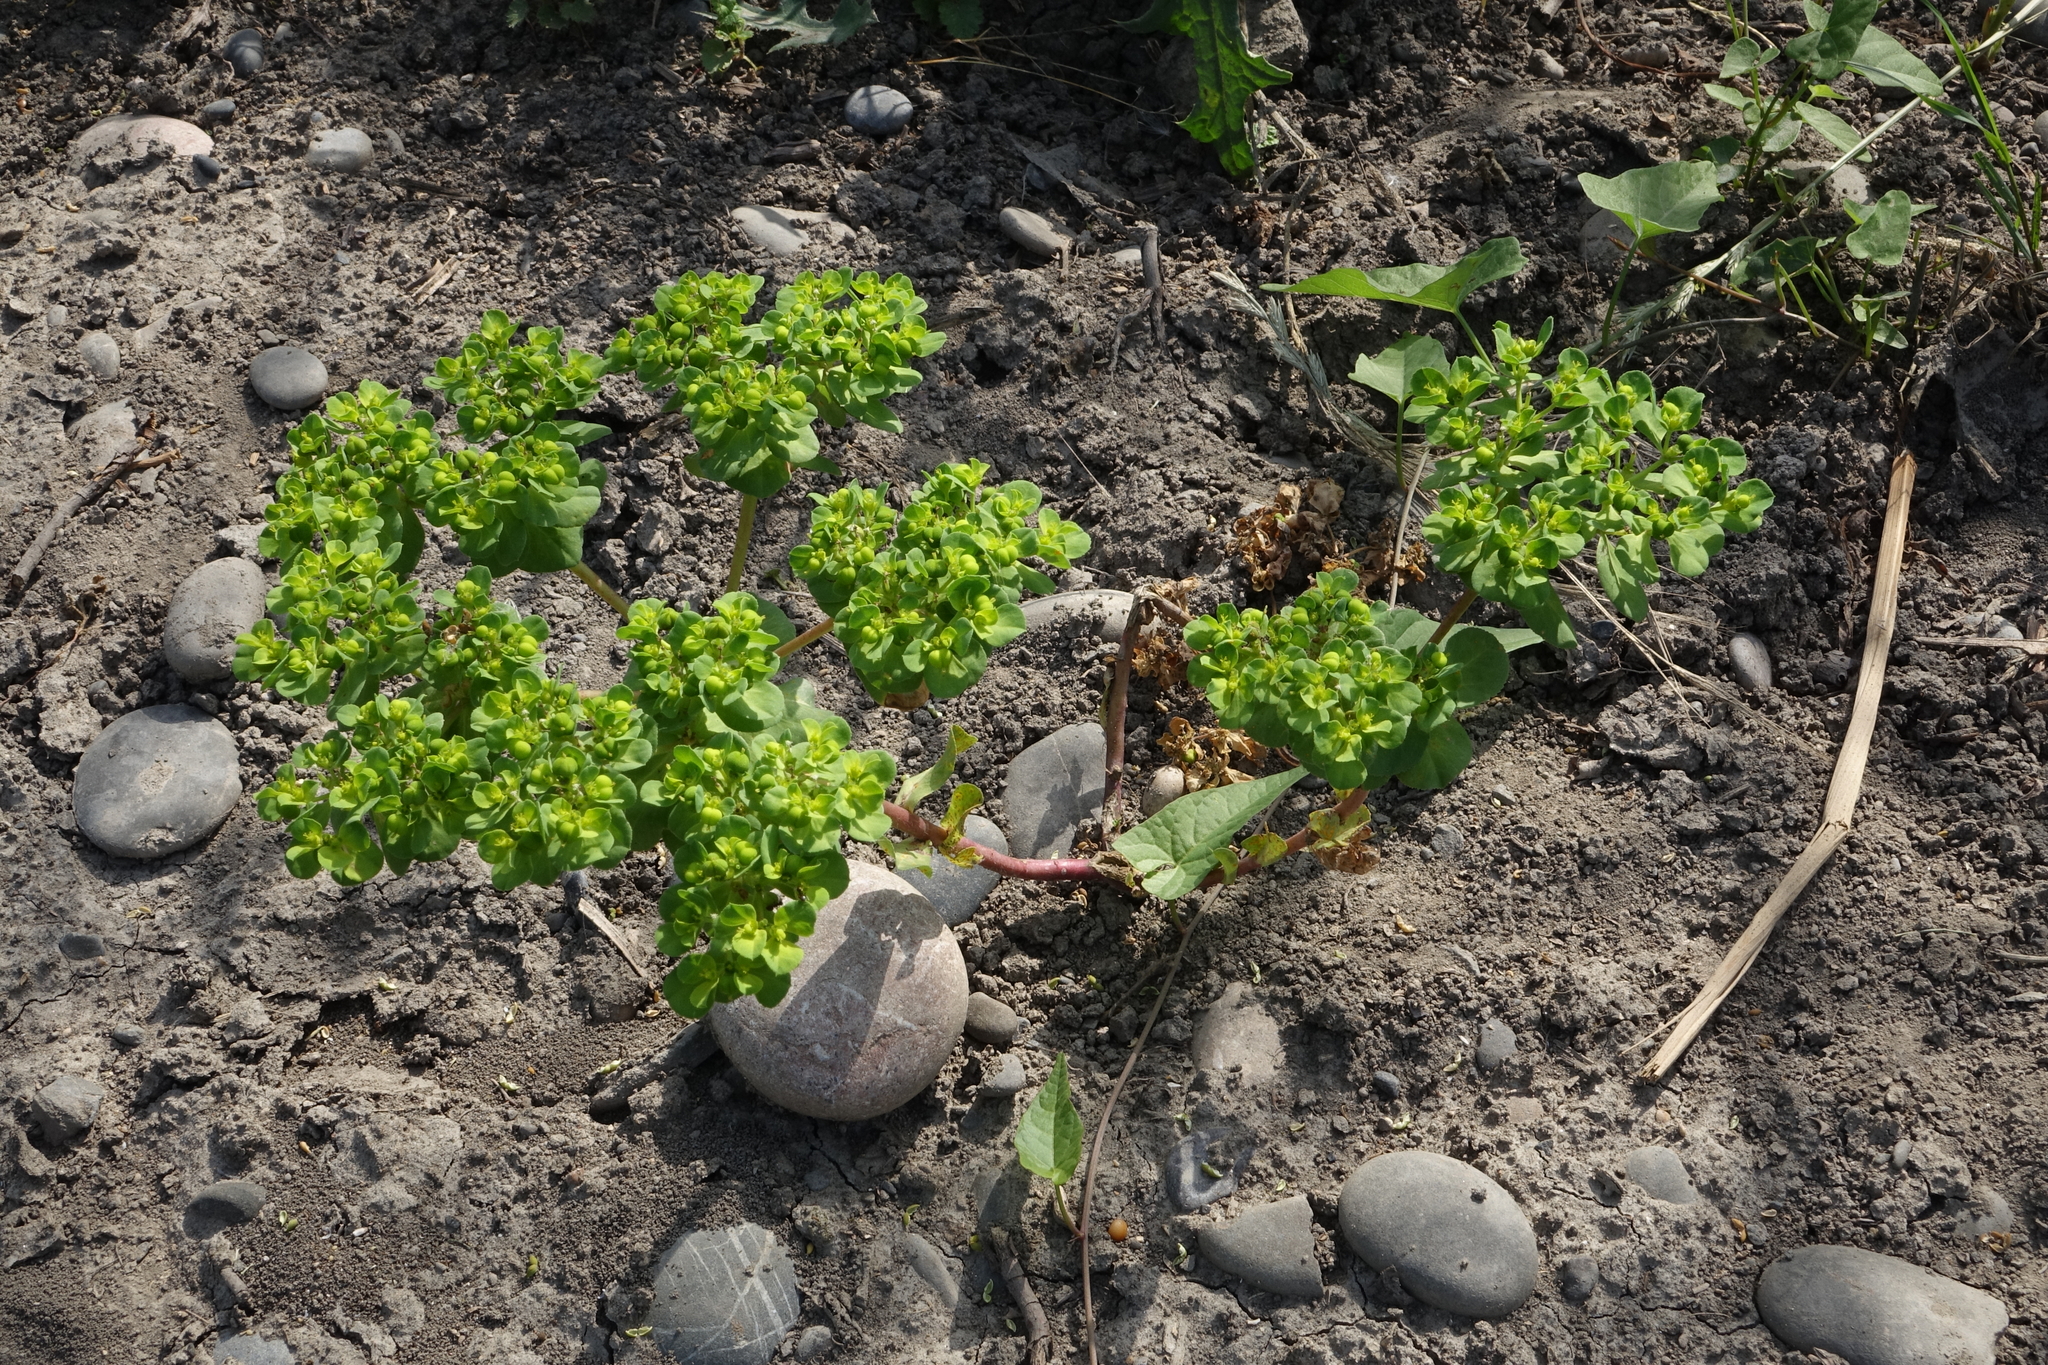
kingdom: Plantae
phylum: Tracheophyta
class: Magnoliopsida
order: Malpighiales
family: Euphorbiaceae
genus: Euphorbia
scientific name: Euphorbia helioscopia
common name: Sun spurge
